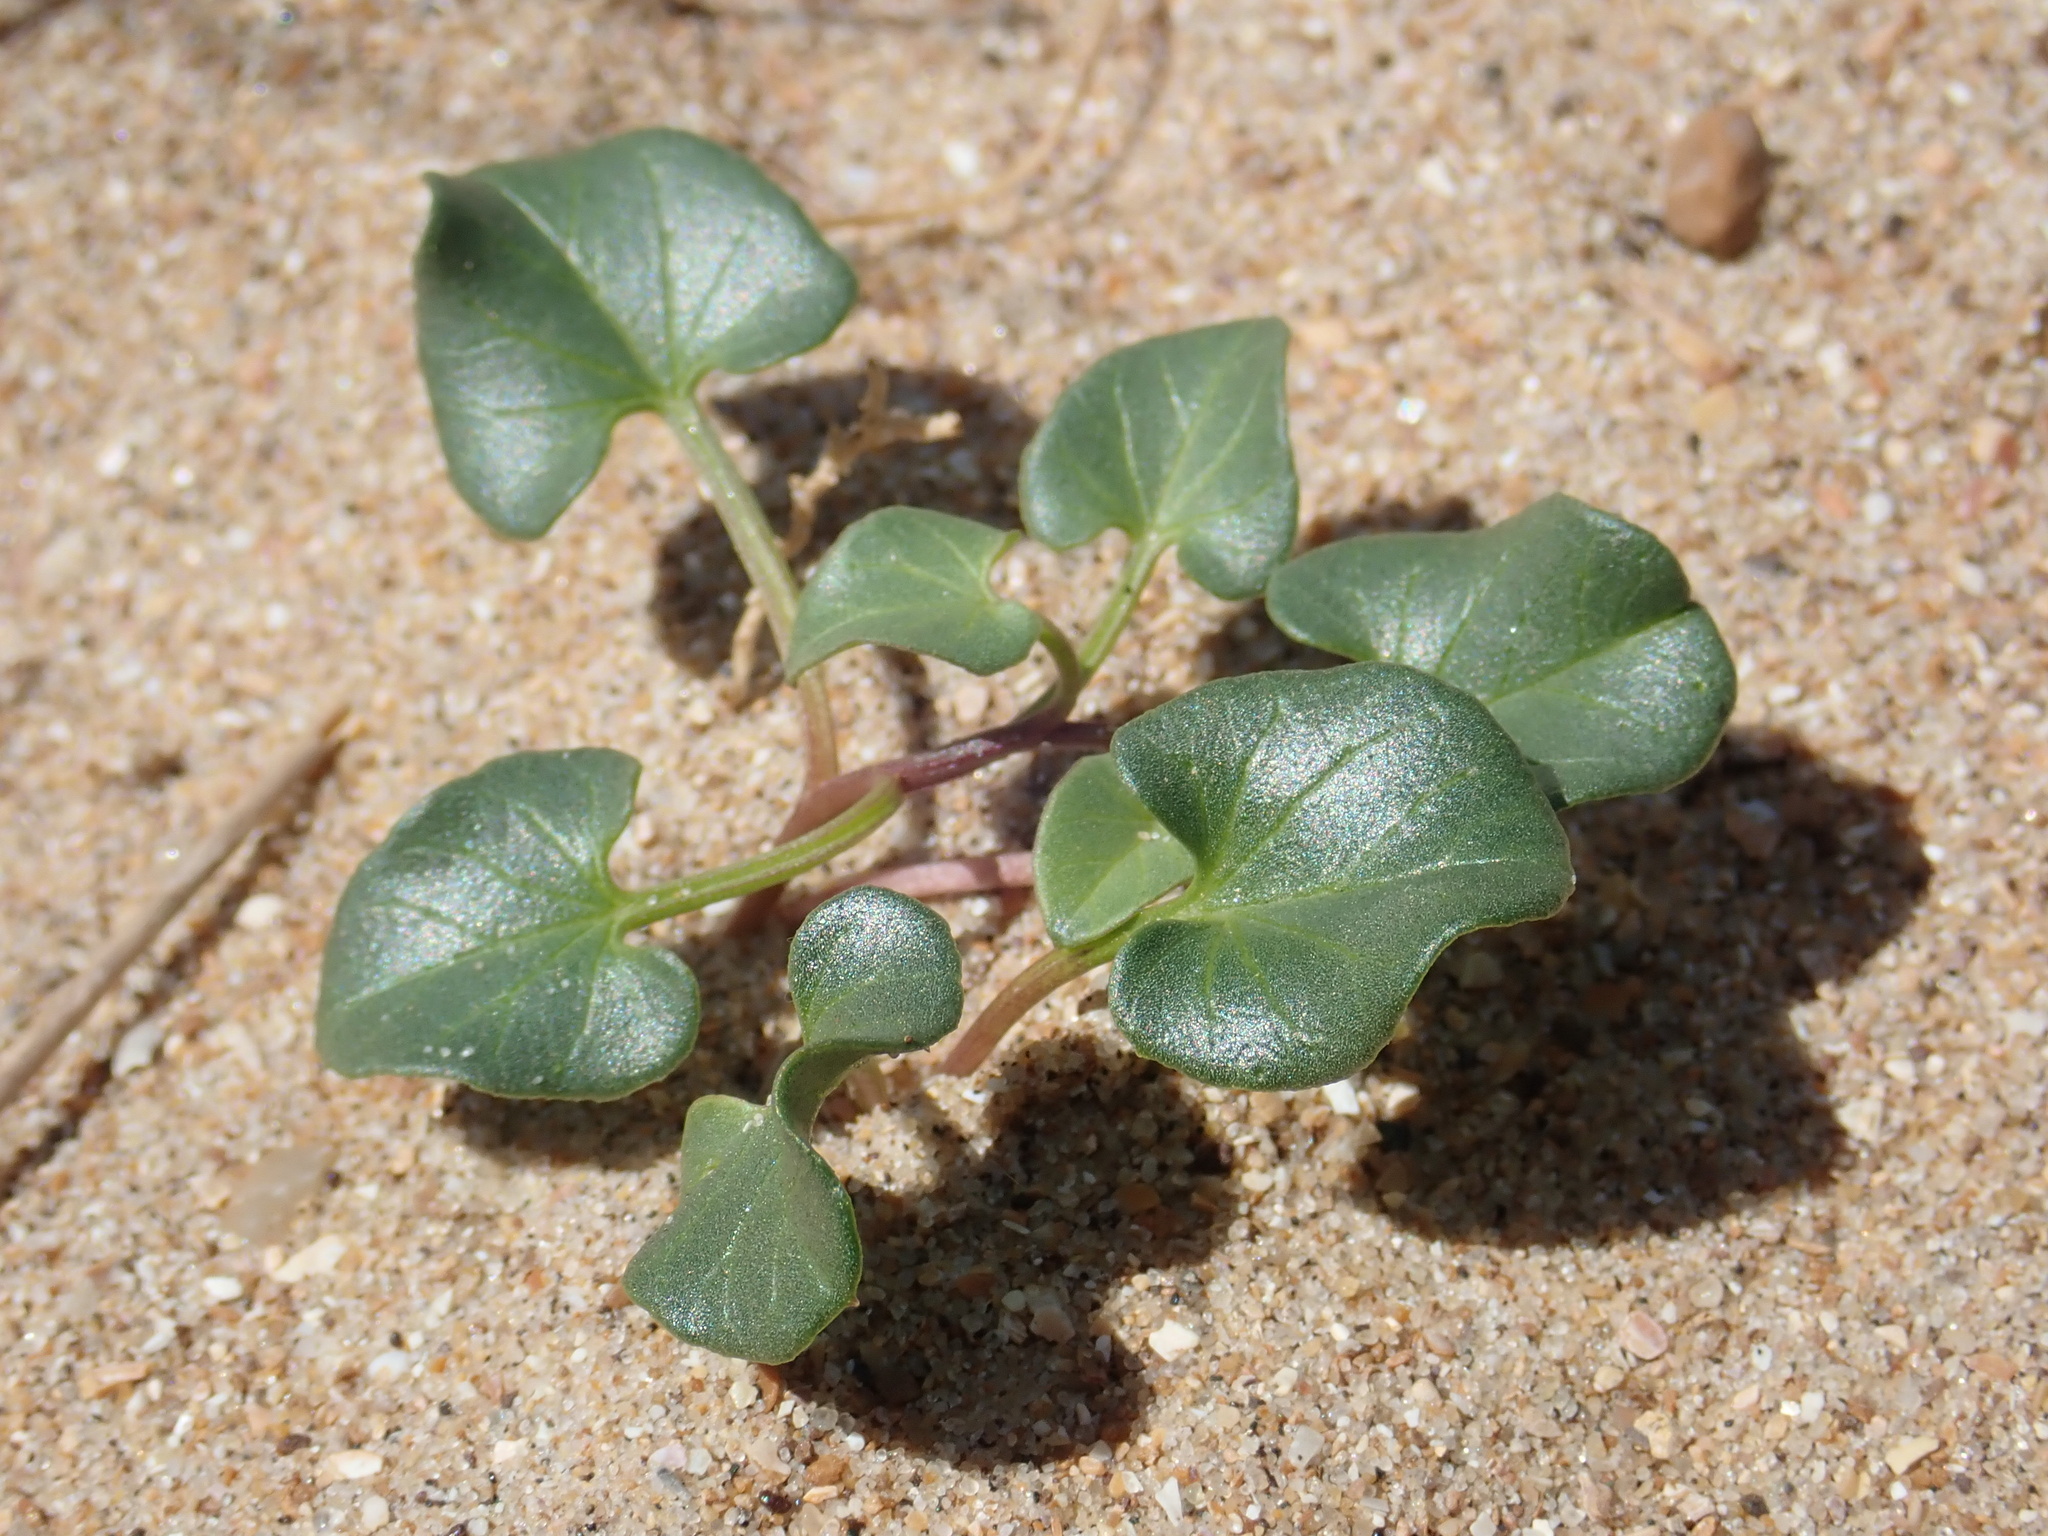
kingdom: Plantae
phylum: Tracheophyta
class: Magnoliopsida
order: Solanales
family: Convolvulaceae
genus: Calystegia
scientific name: Calystegia soldanella
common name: Sea bindweed
